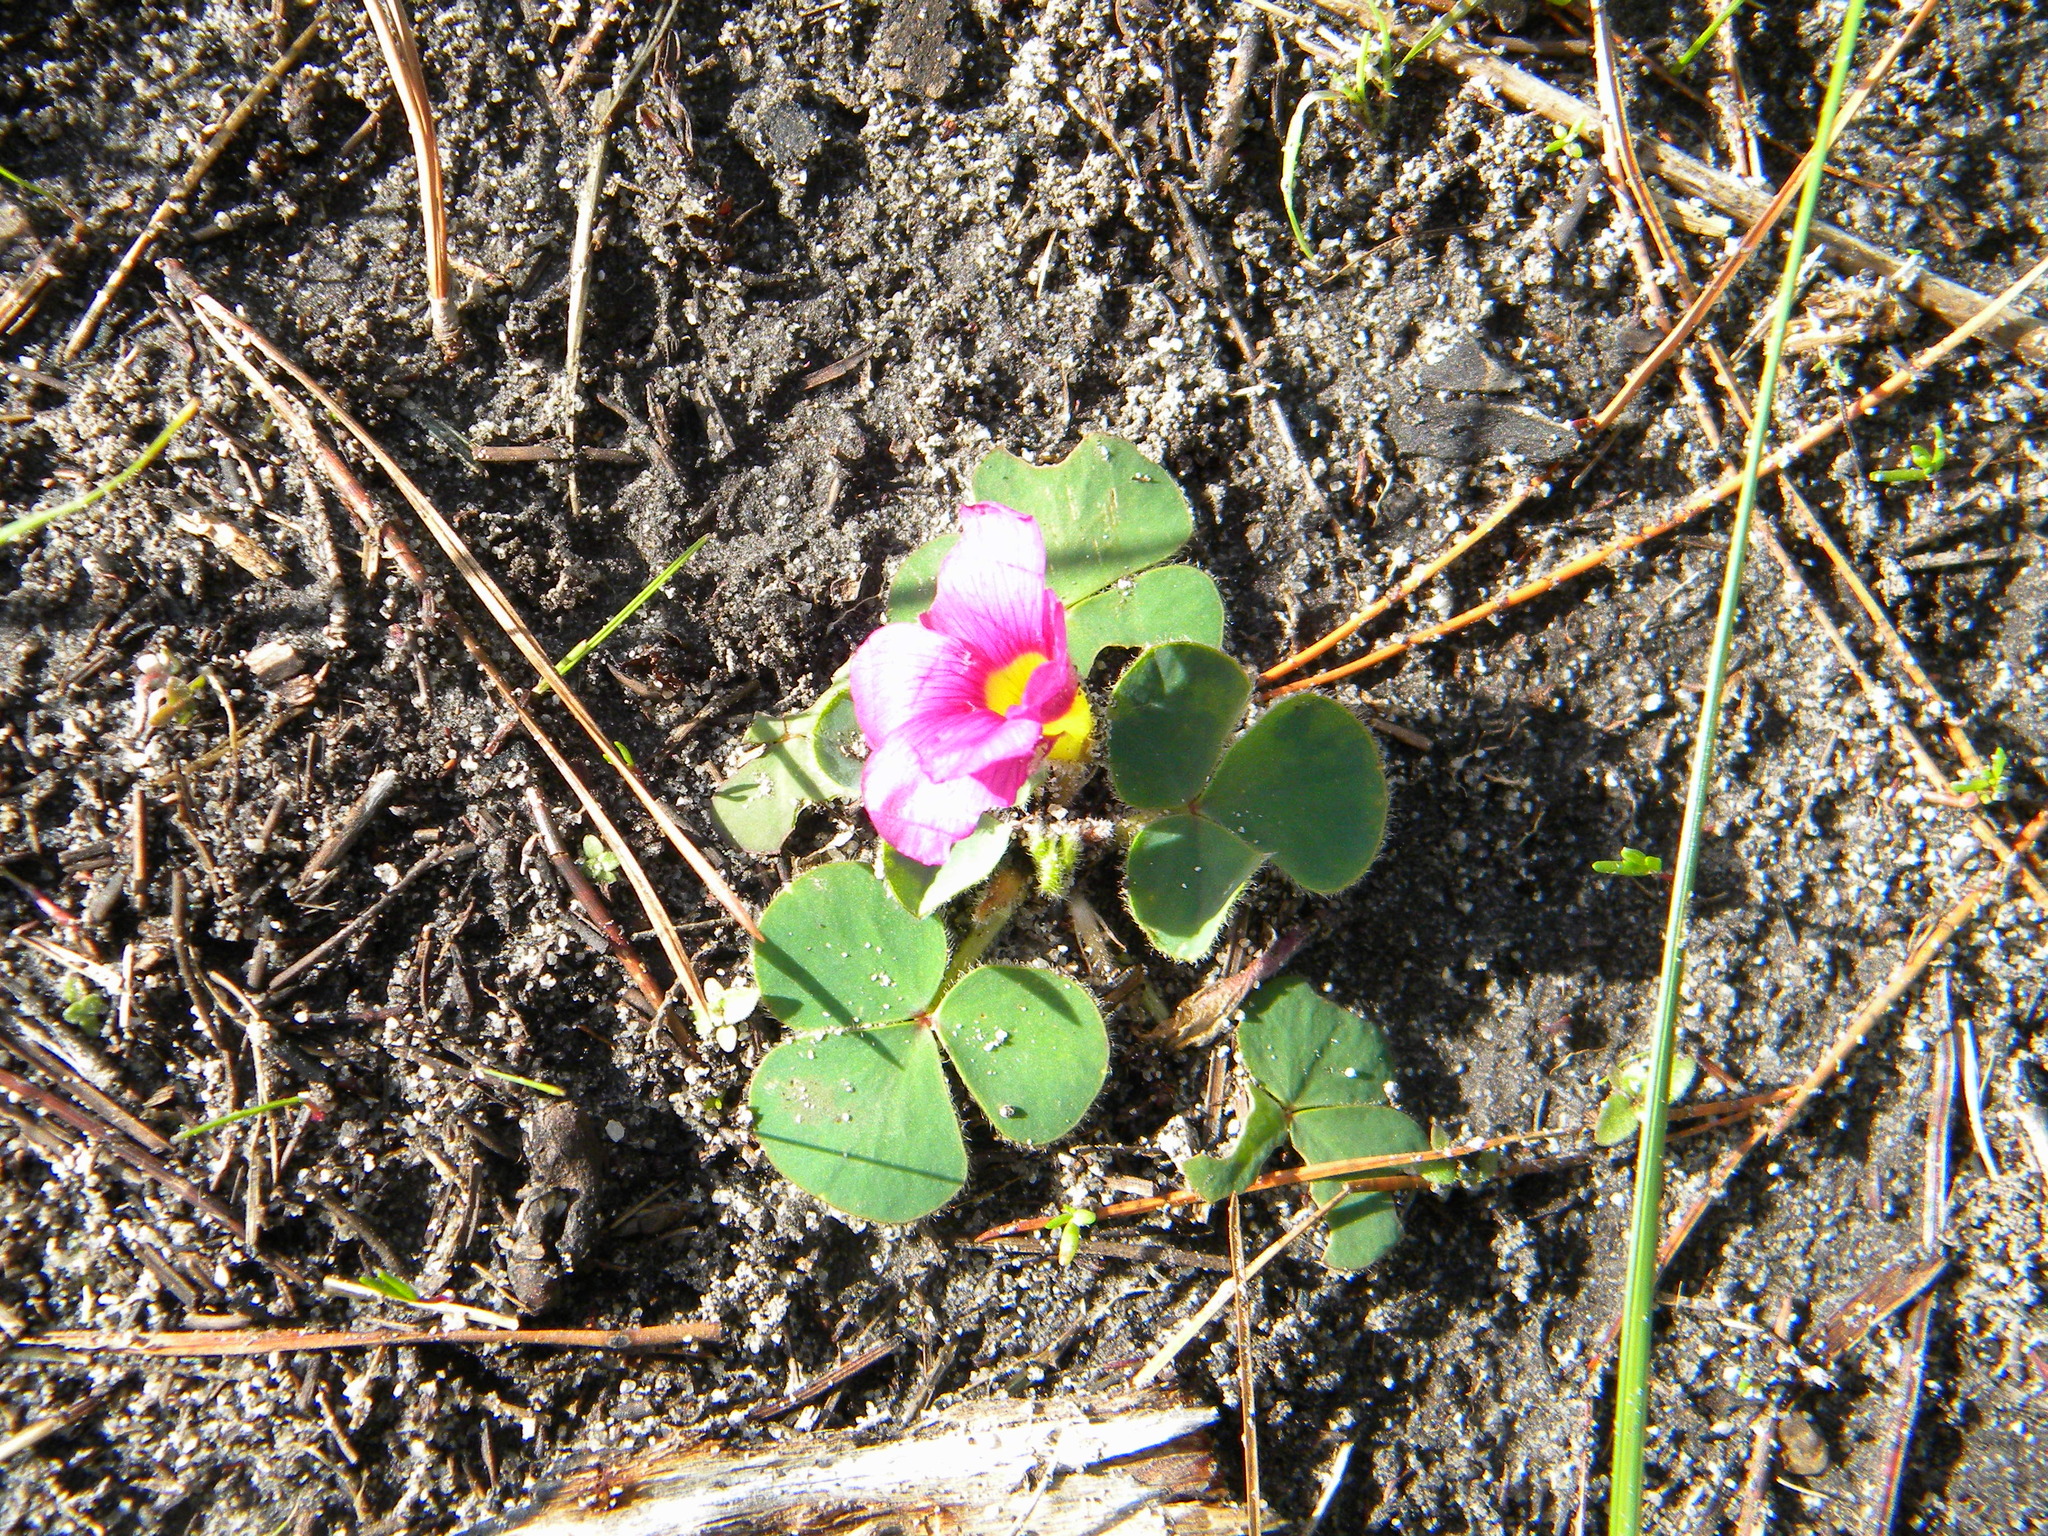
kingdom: Plantae
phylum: Tracheophyta
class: Magnoliopsida
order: Oxalidales
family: Oxalidaceae
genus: Oxalis
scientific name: Oxalis purpurea
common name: Purple woodsorrel
